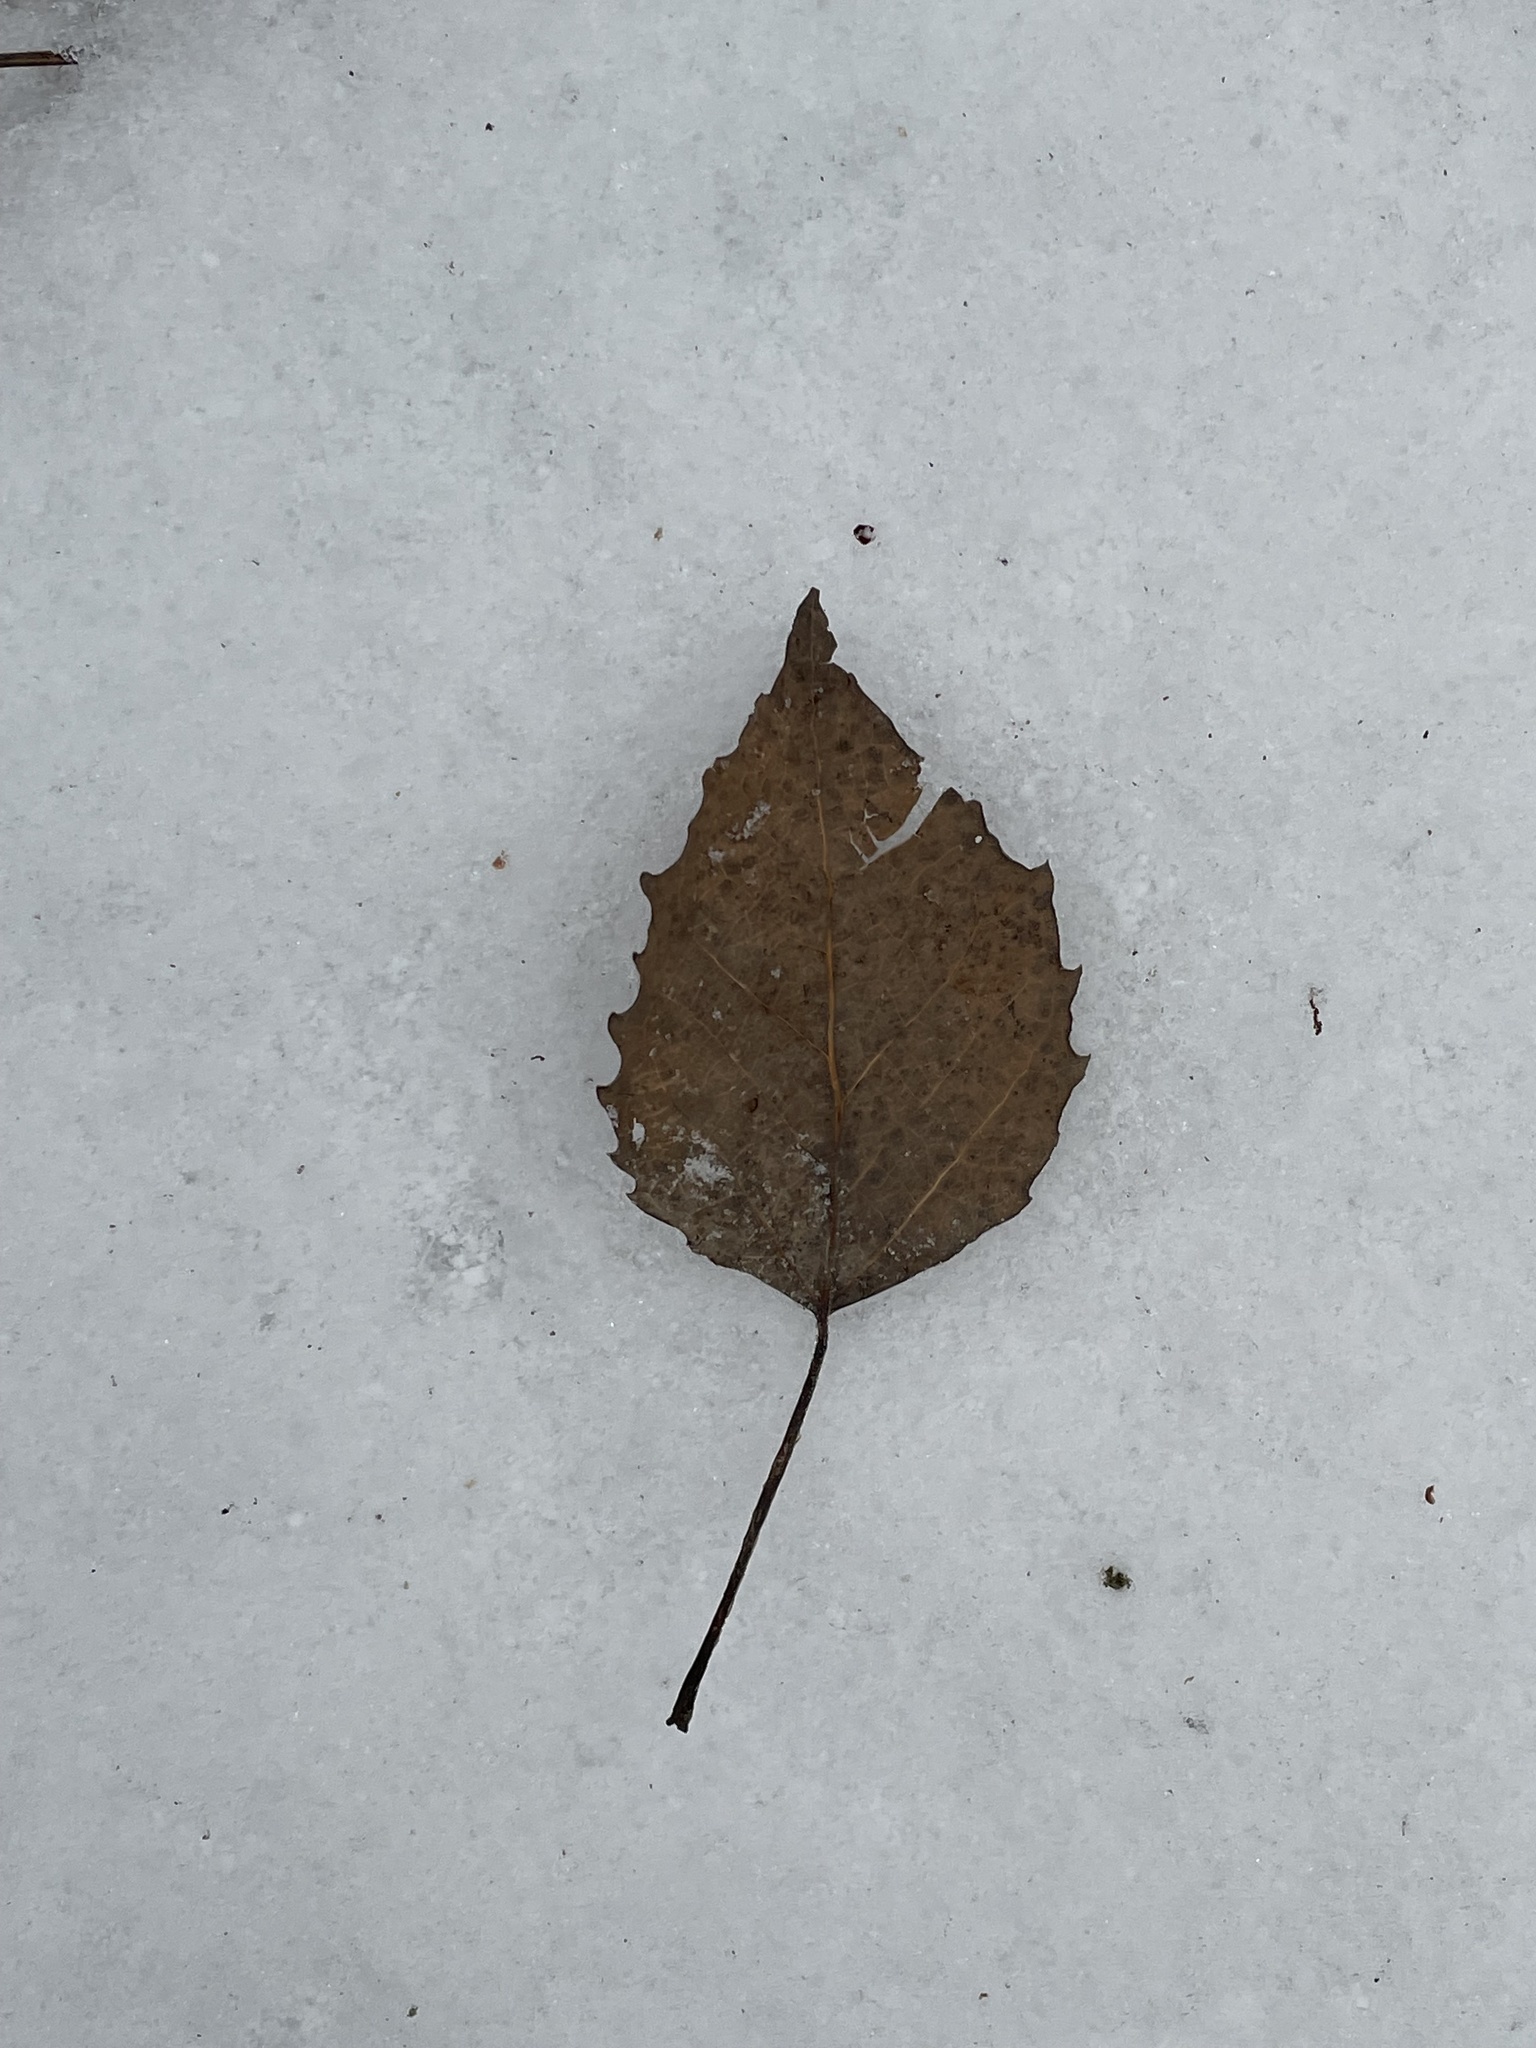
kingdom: Plantae
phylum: Tracheophyta
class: Magnoliopsida
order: Malpighiales
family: Salicaceae
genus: Populus
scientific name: Populus grandidentata
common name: Bigtooth aspen
